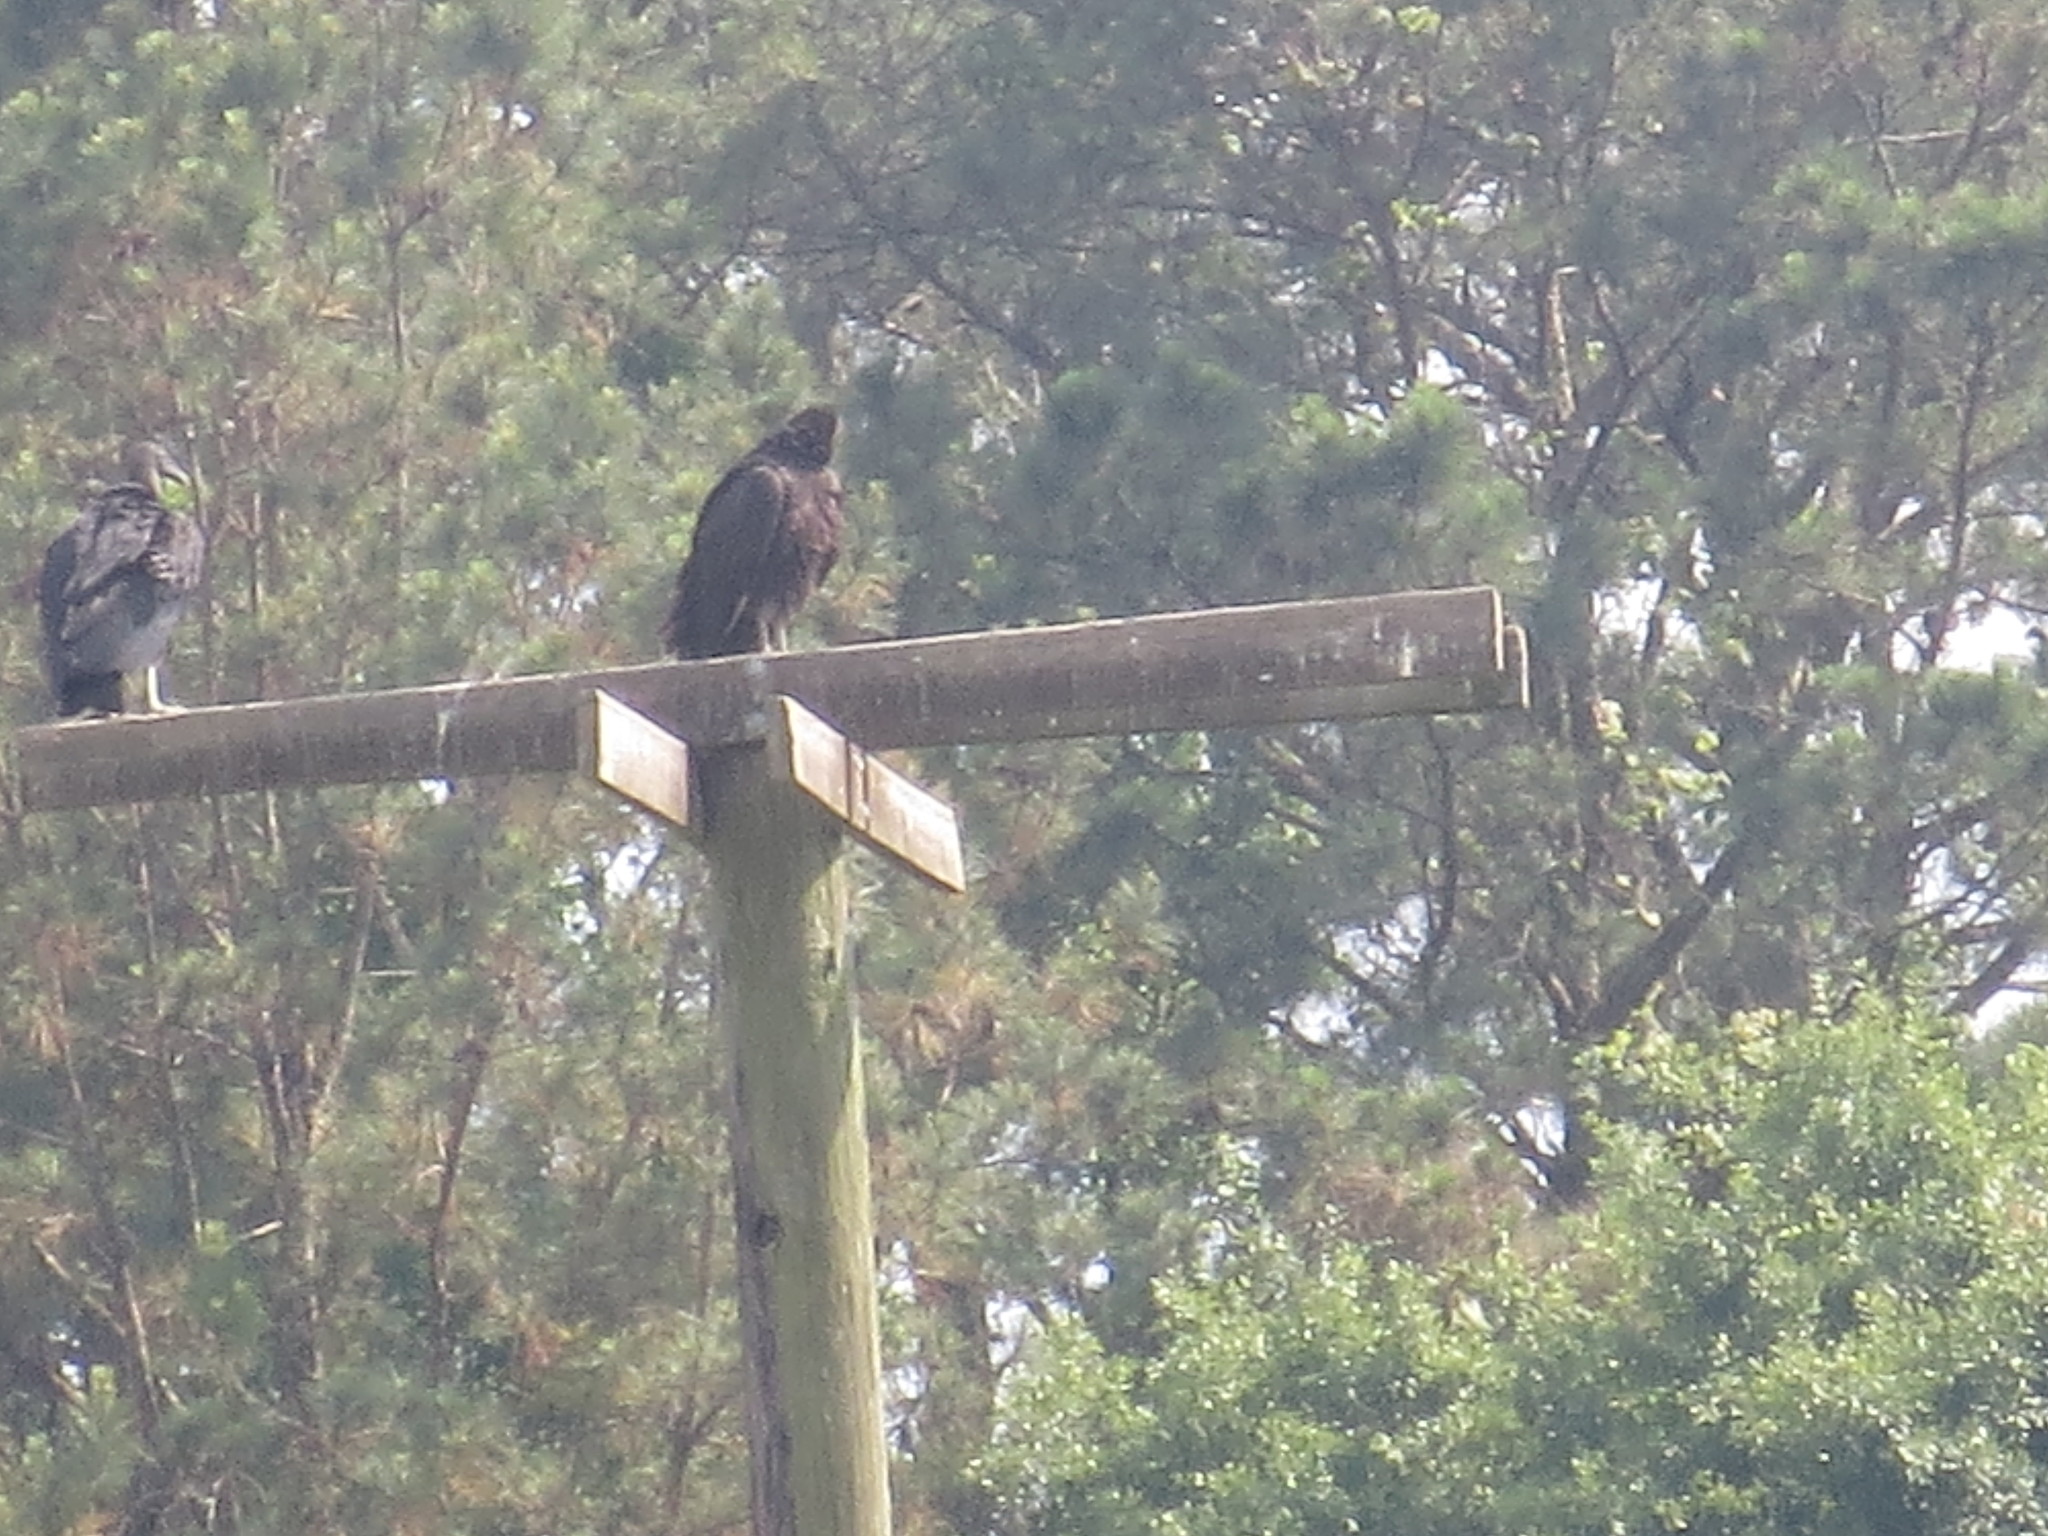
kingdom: Animalia
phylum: Chordata
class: Aves
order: Accipitriformes
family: Cathartidae
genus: Coragyps
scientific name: Coragyps atratus
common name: Black vulture
